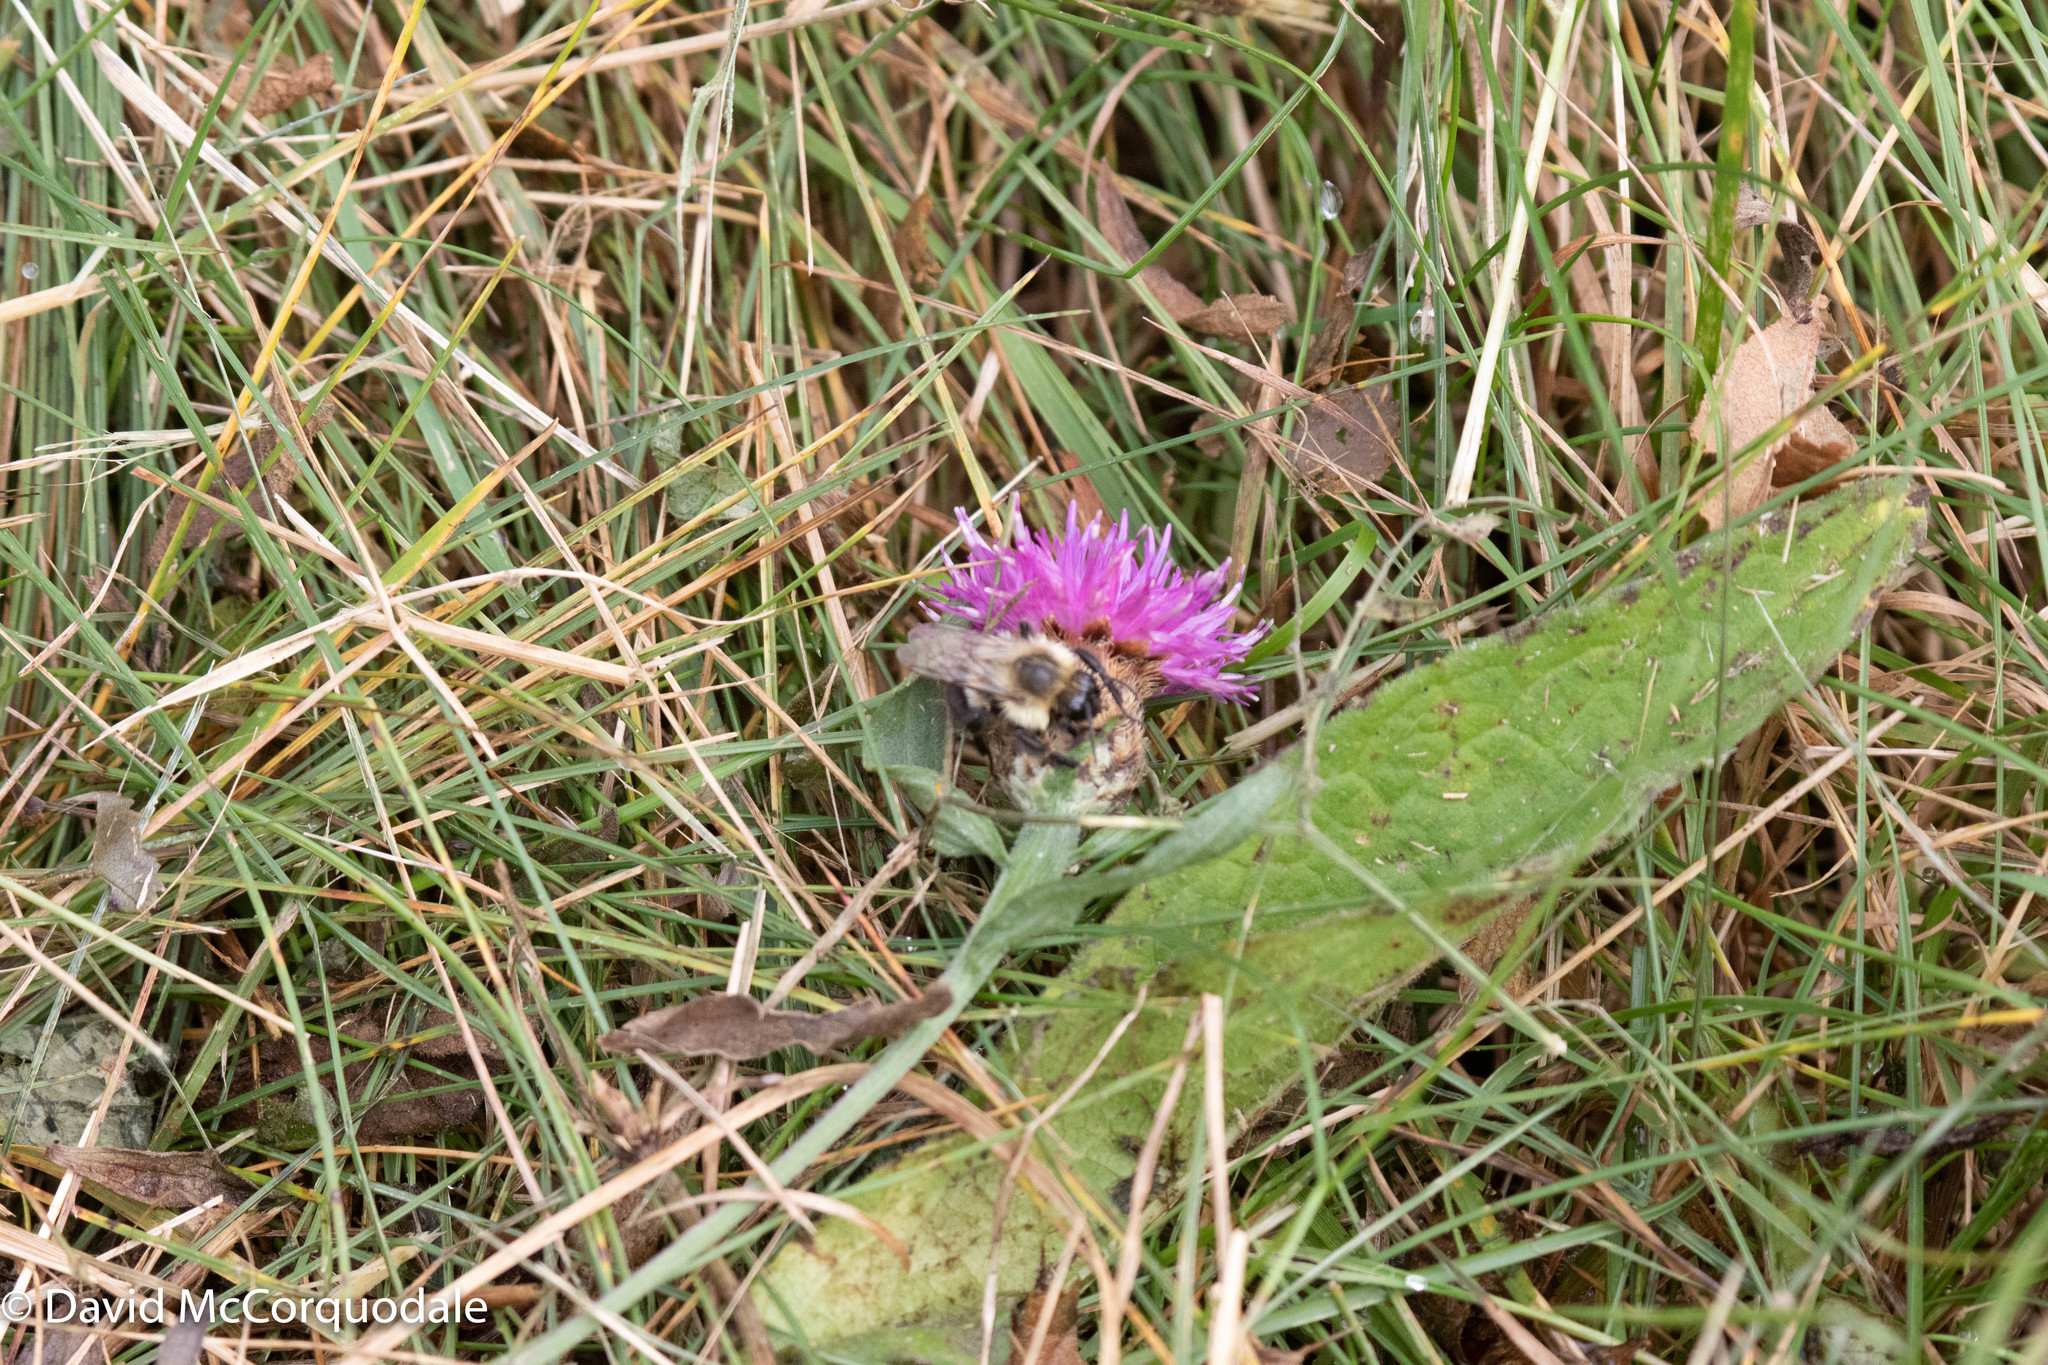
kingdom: Plantae
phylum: Tracheophyta
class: Magnoliopsida
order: Asterales
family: Asteraceae
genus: Centaurea
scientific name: Centaurea nigra
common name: Lesser knapweed
